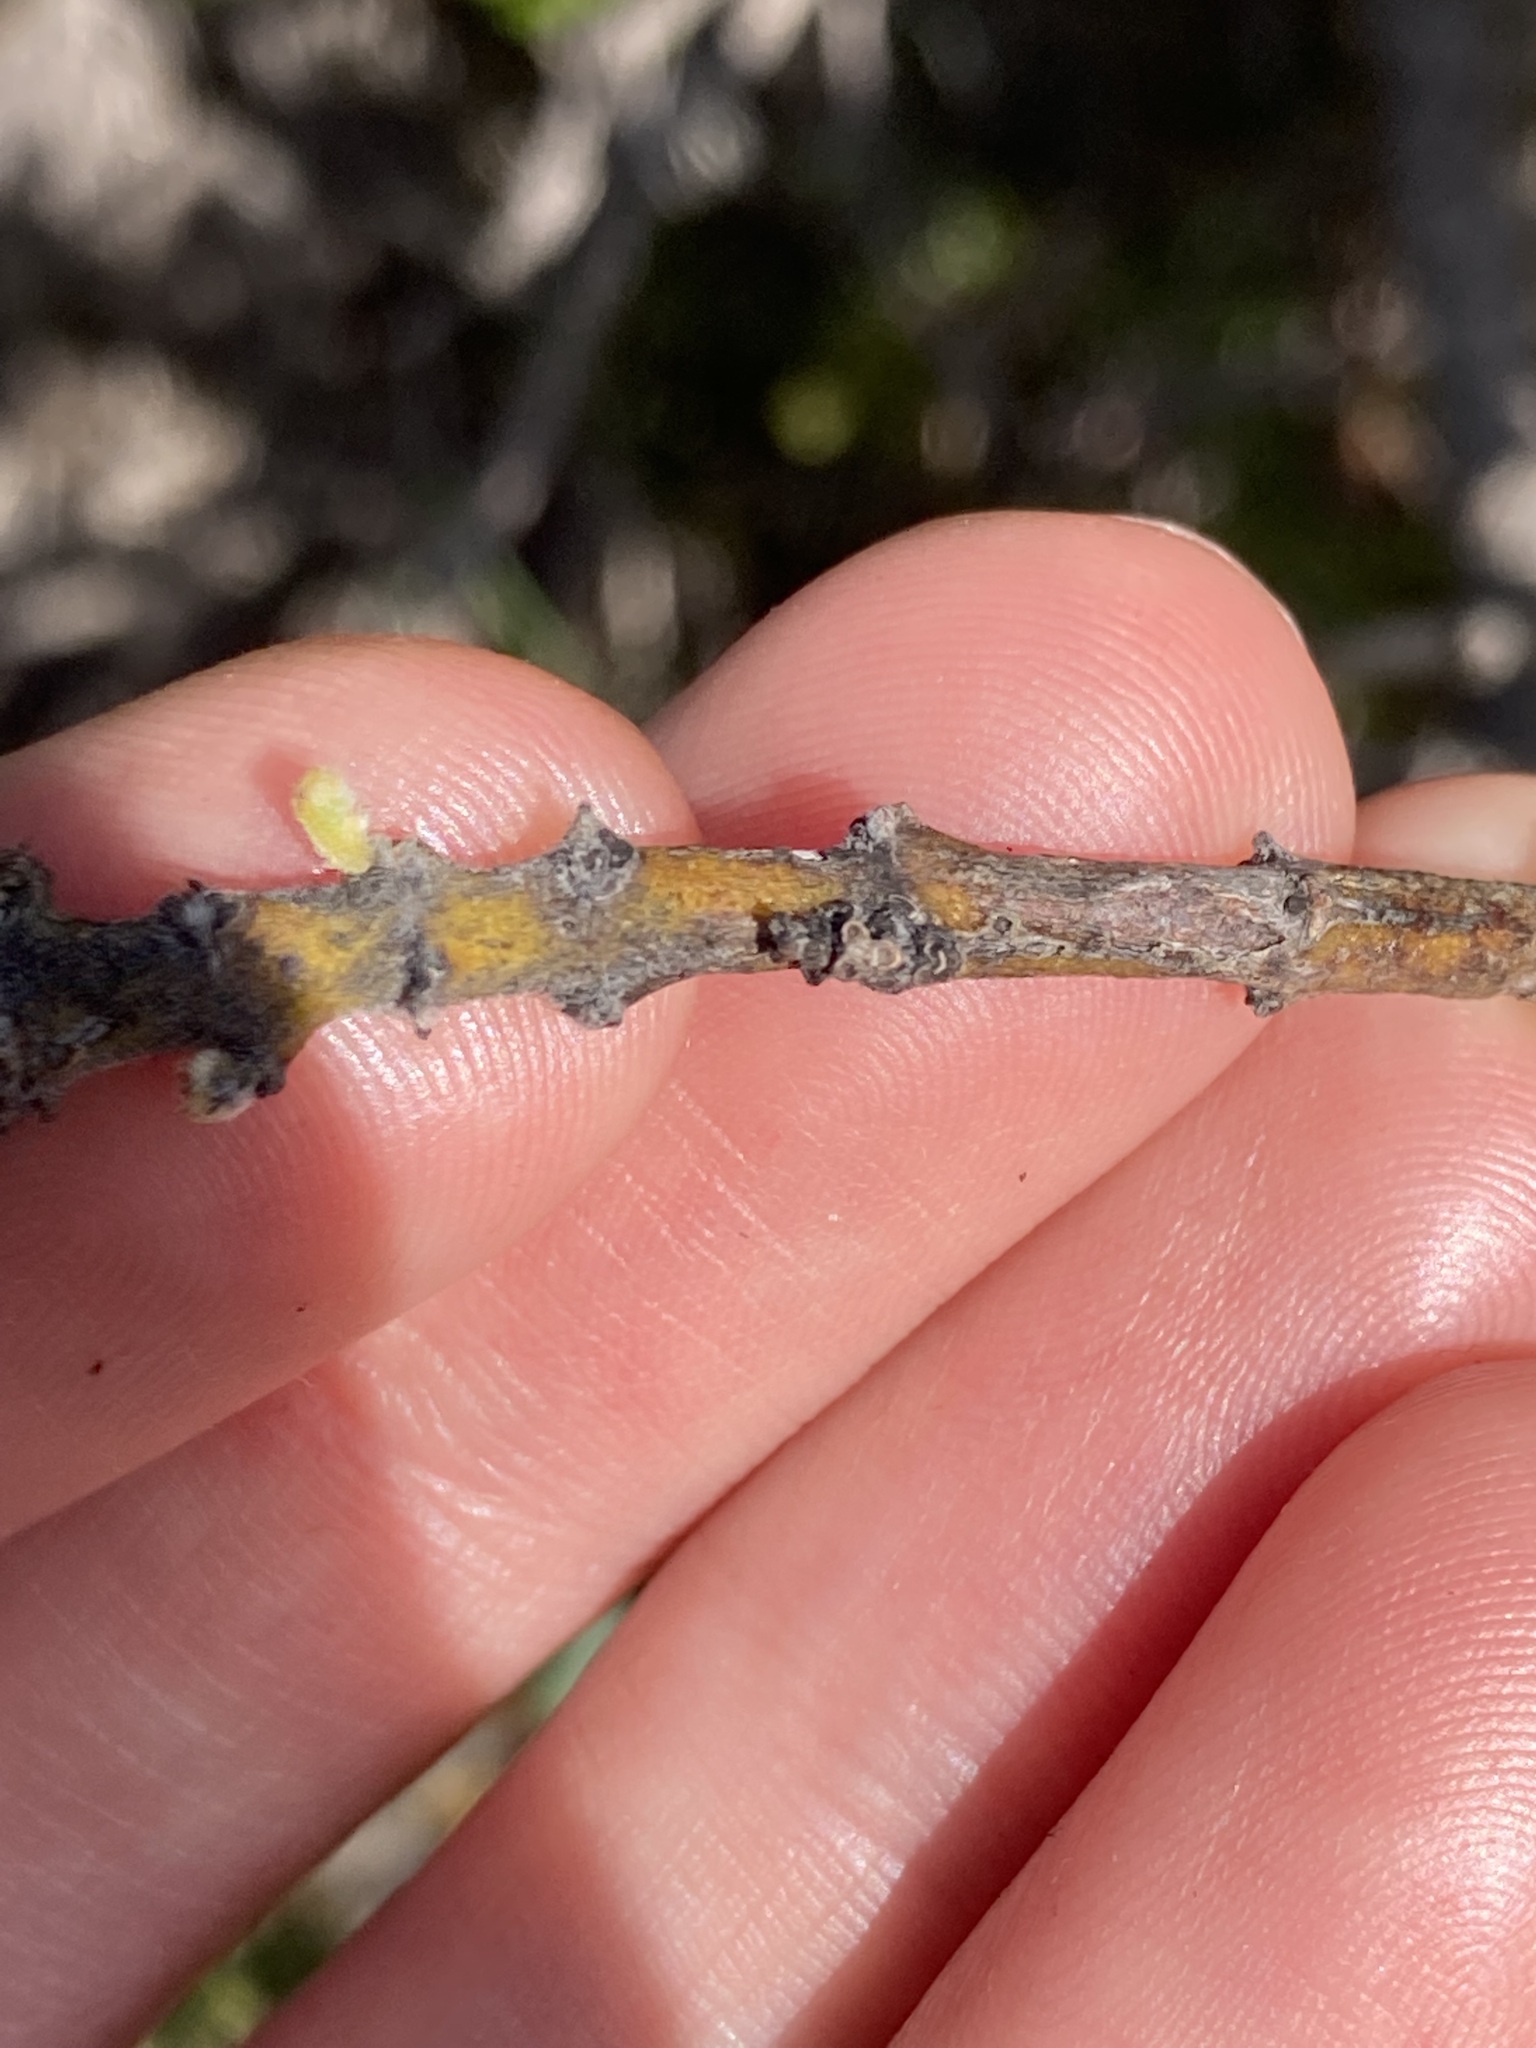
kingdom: Plantae
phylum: Tracheophyta
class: Magnoliopsida
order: Fabales
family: Fabaceae
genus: Gastrolobium
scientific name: Gastrolobium ilicifolium
